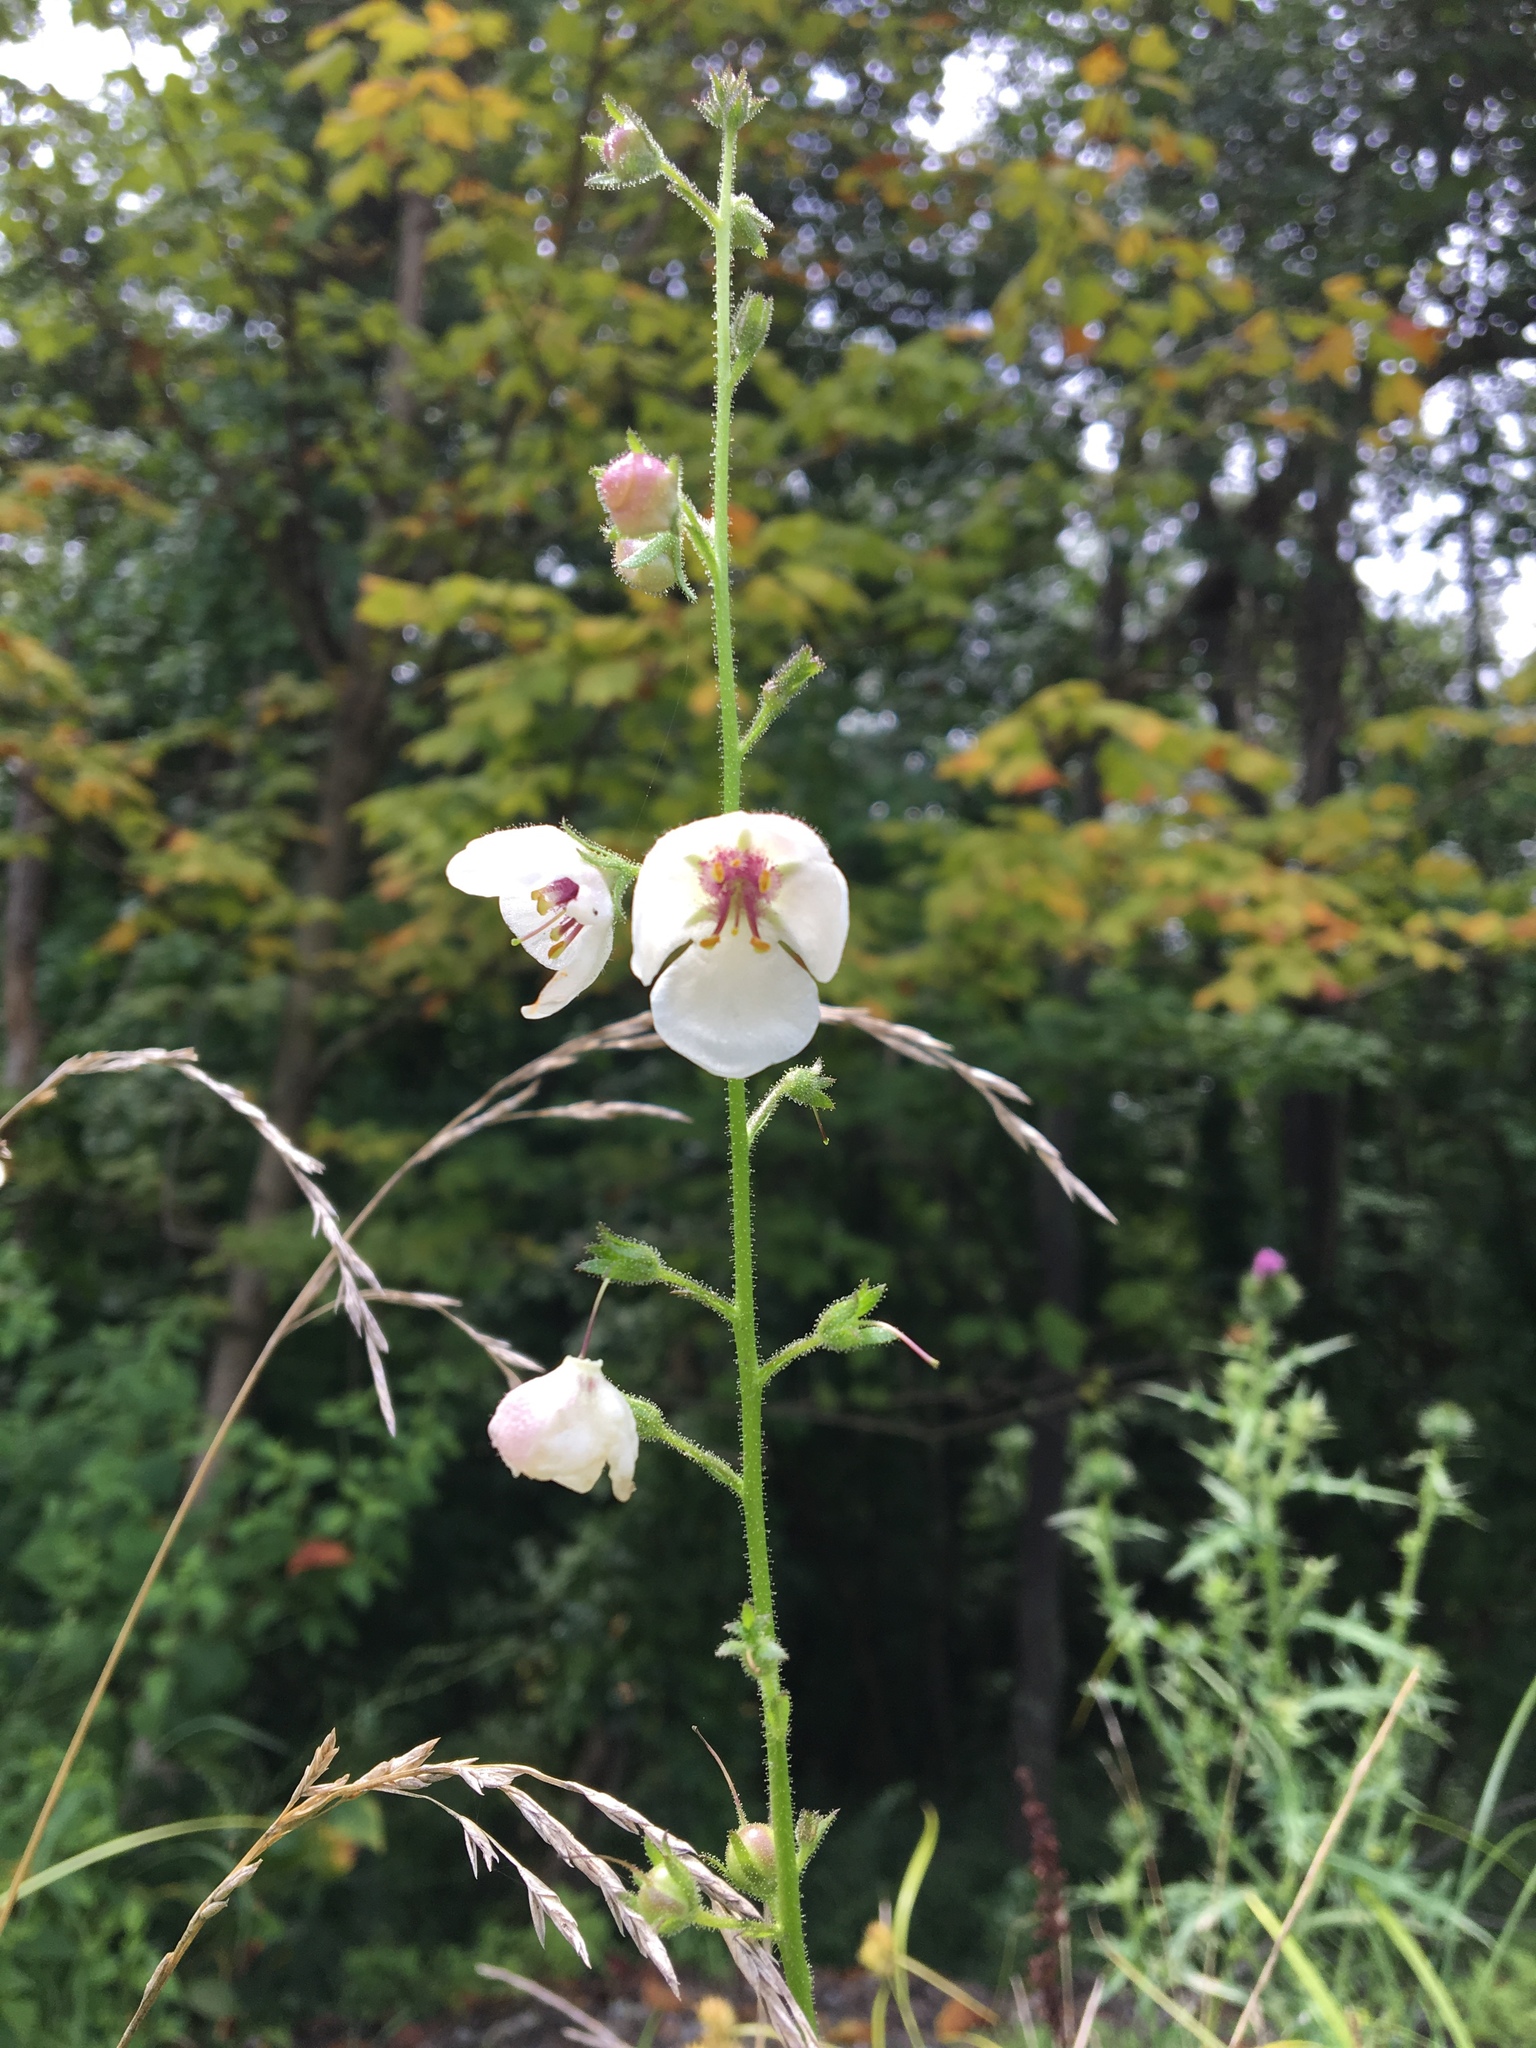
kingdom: Plantae
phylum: Tracheophyta
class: Magnoliopsida
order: Lamiales
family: Scrophulariaceae
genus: Verbascum
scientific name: Verbascum blattaria
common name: Moth mullein
